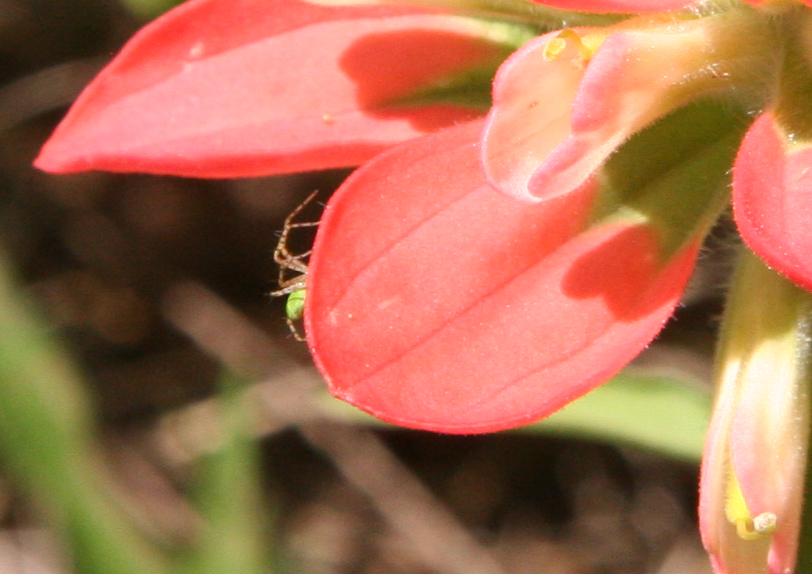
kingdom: Animalia
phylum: Arthropoda
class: Arachnida
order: Araneae
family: Oxyopidae
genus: Peucetia
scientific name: Peucetia viridans
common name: Lynx spiders
